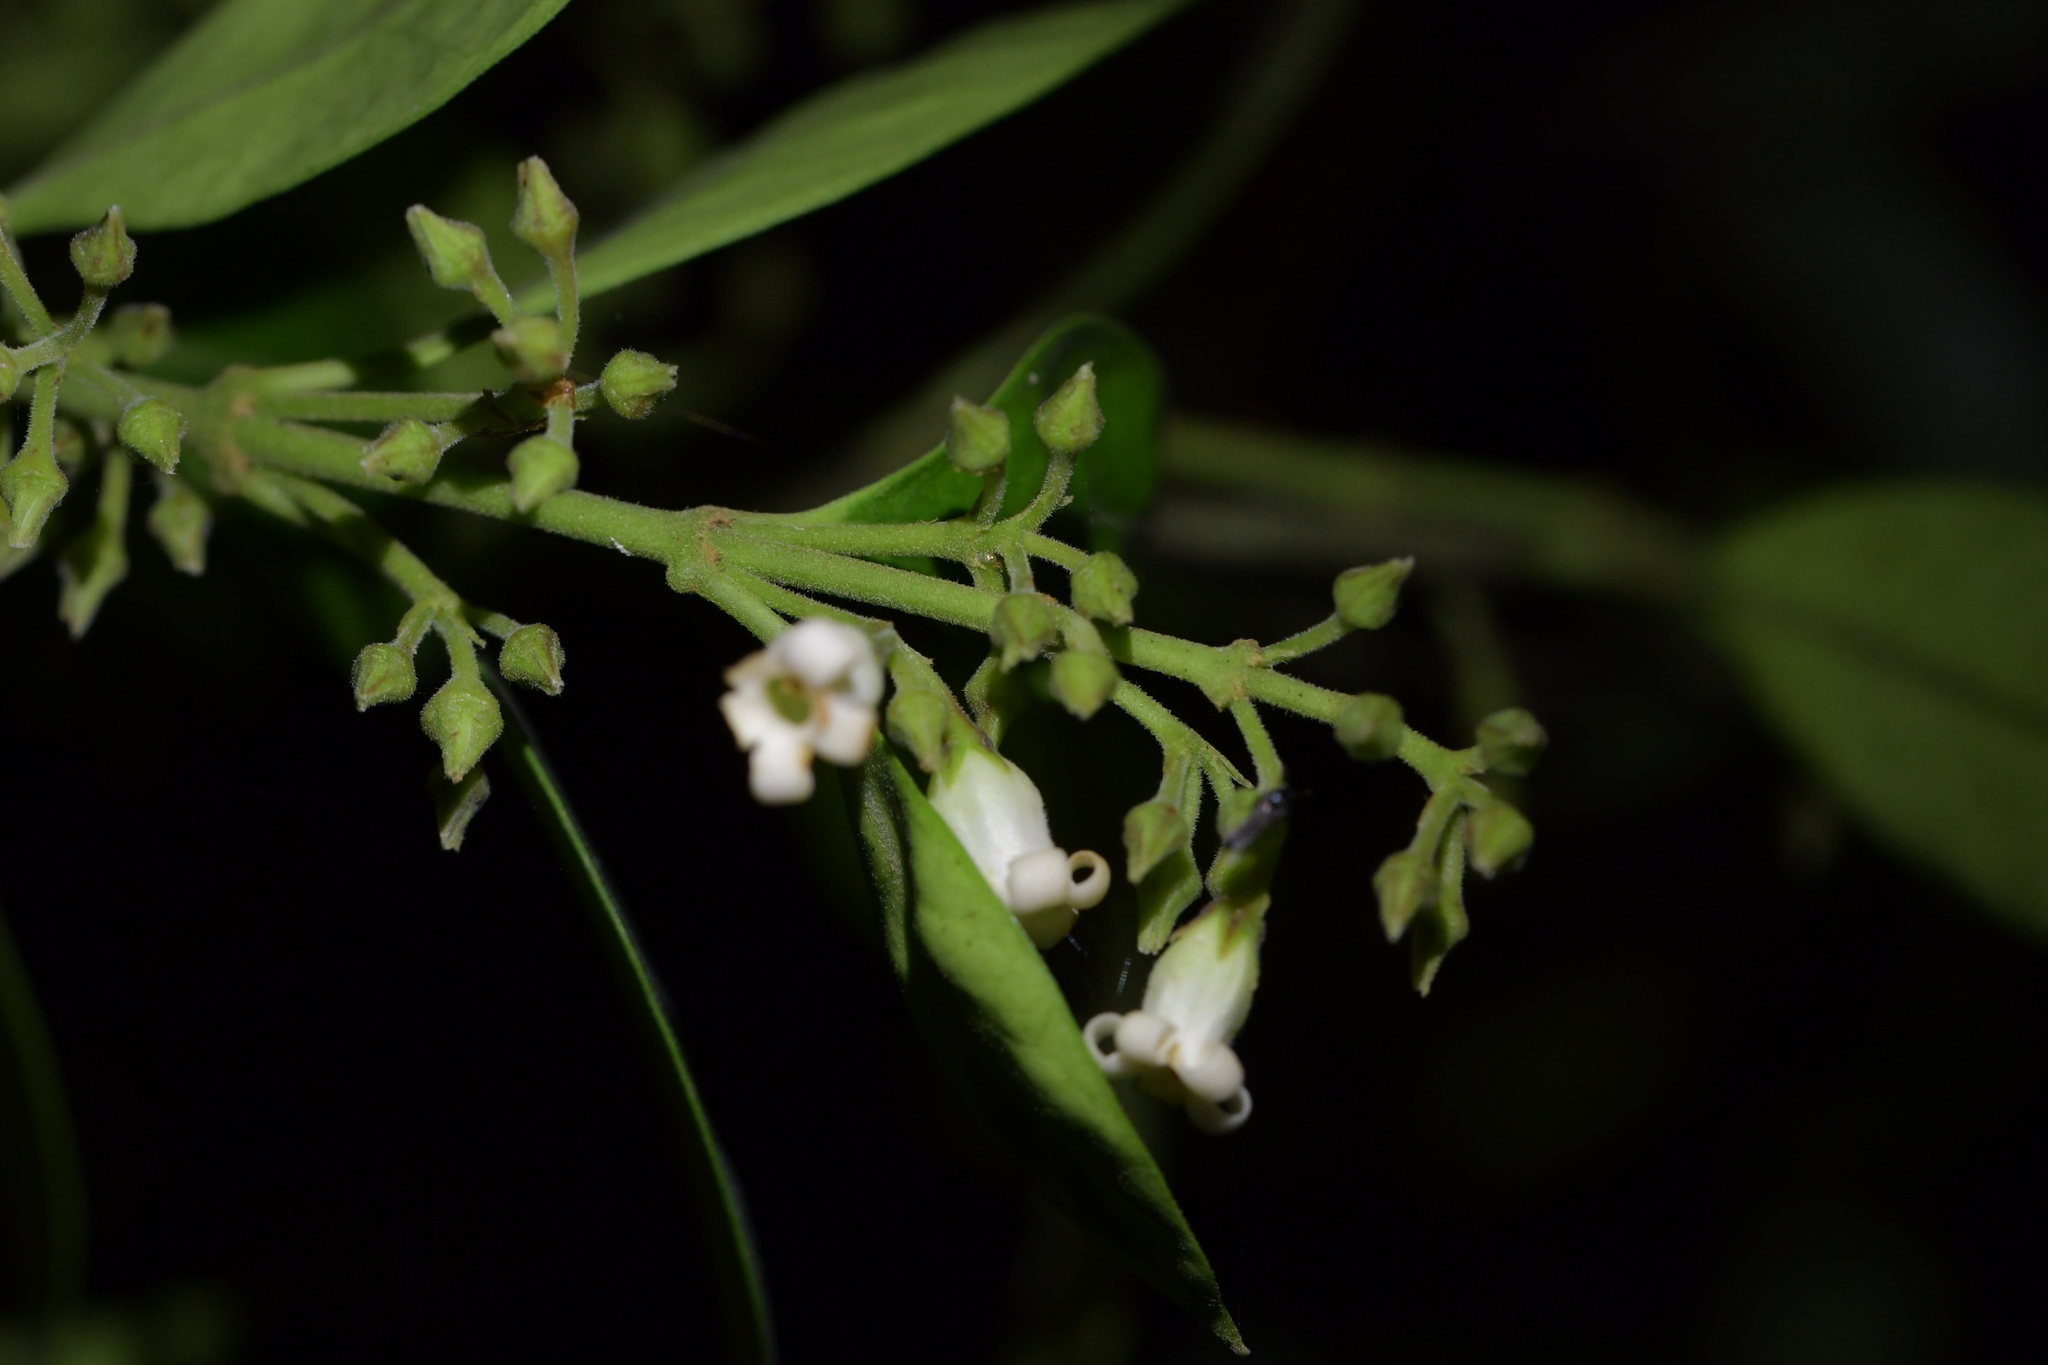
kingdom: Plantae
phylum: Tracheophyta
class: Magnoliopsida
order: Gentianales
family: Apocynaceae
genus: Parsonsia
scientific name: Parsonsia heterophylla
